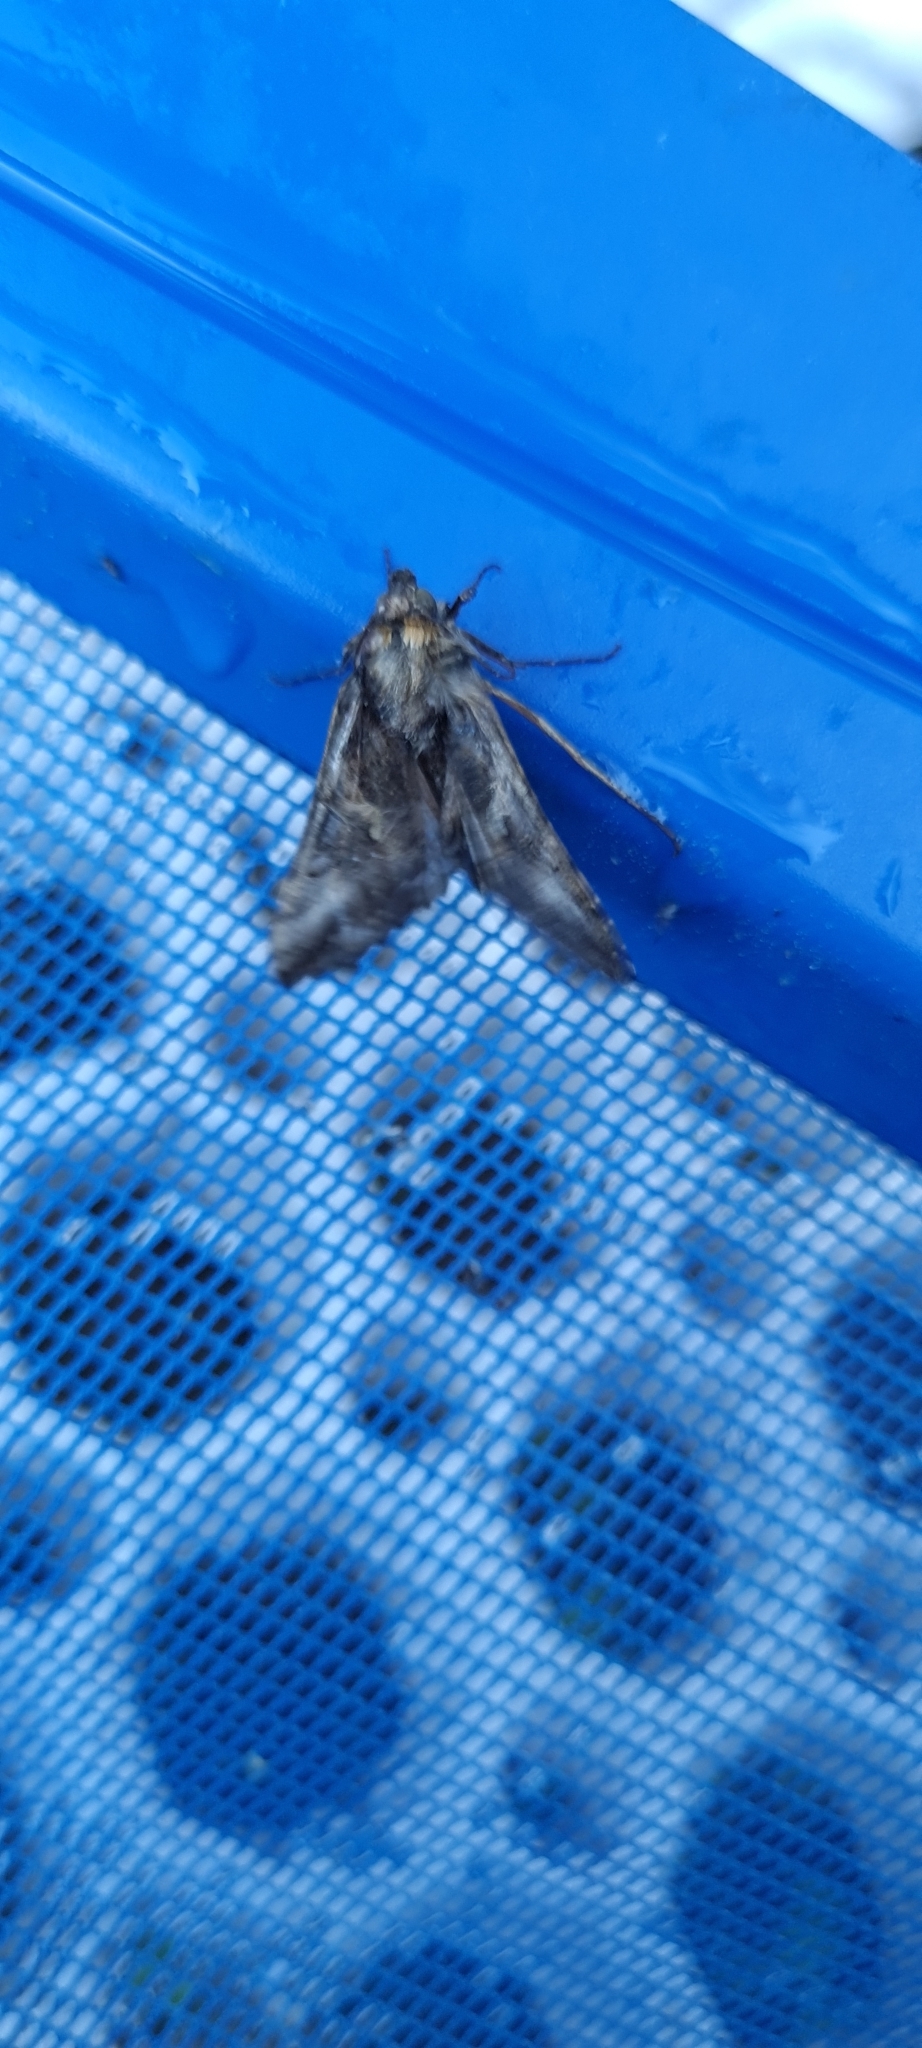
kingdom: Animalia
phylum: Arthropoda
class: Insecta
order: Lepidoptera
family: Noctuidae
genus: Autographa
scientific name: Autographa gamma
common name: Silver y
